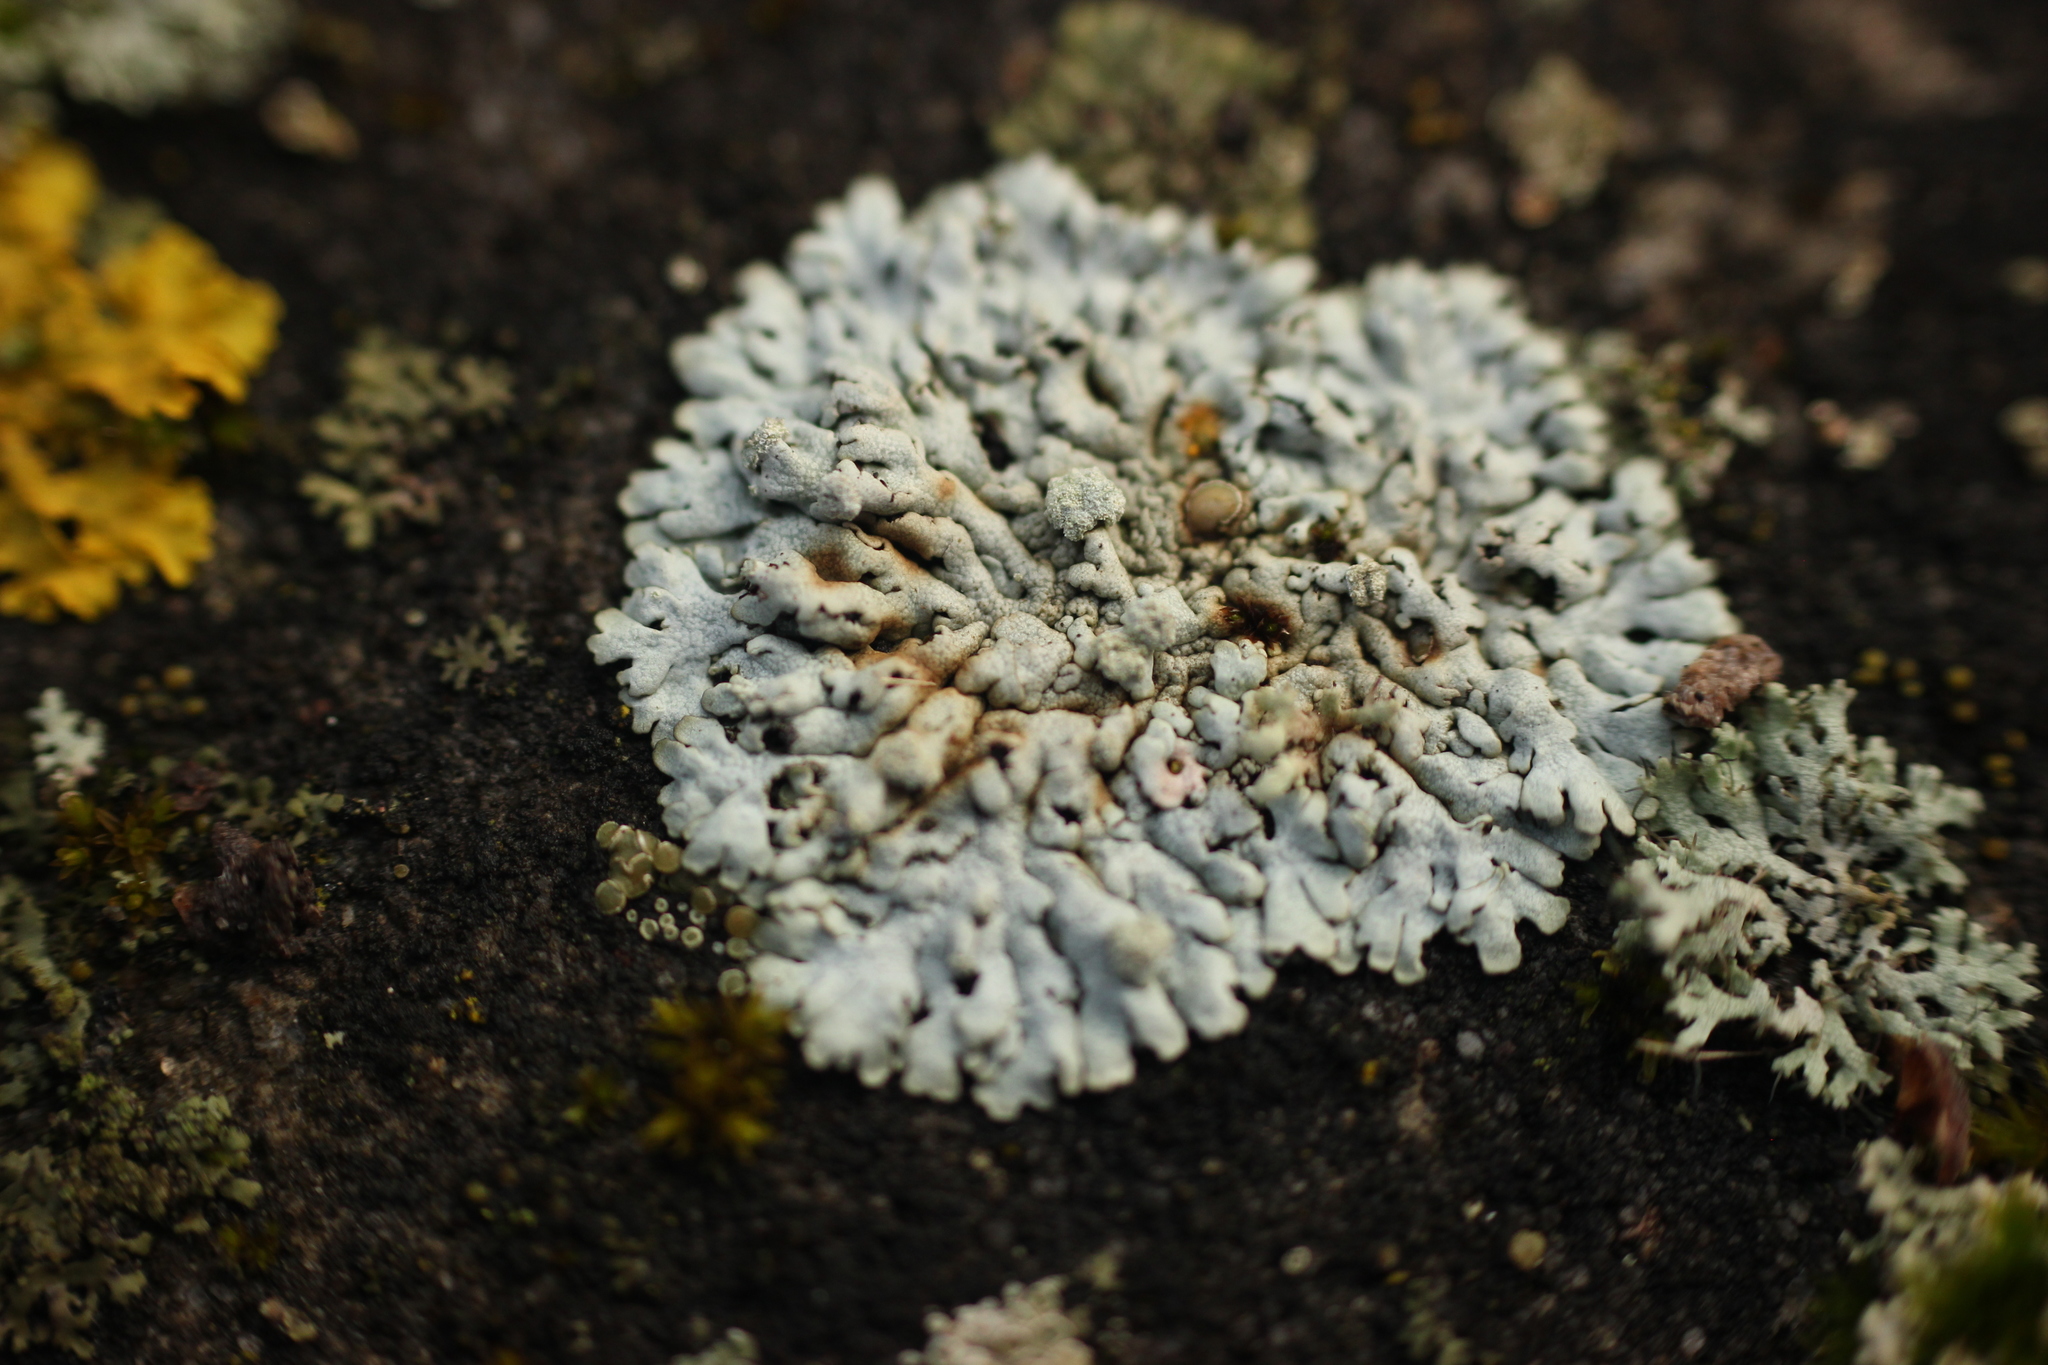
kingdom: Fungi
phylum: Ascomycota
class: Lecanoromycetes
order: Caliciales
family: Physciaceae
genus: Physcia
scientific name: Physcia caesia
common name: Blue-gray rosette lichen
